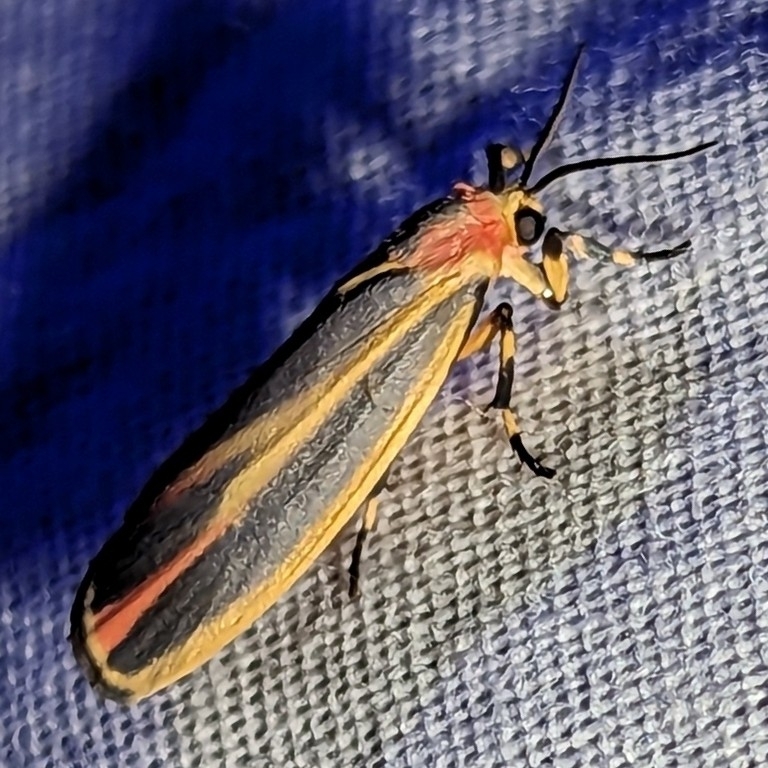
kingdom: Animalia
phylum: Arthropoda
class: Insecta
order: Lepidoptera
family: Erebidae
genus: Hypoprepia
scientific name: Hypoprepia fucosa
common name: Painted lichen moth
